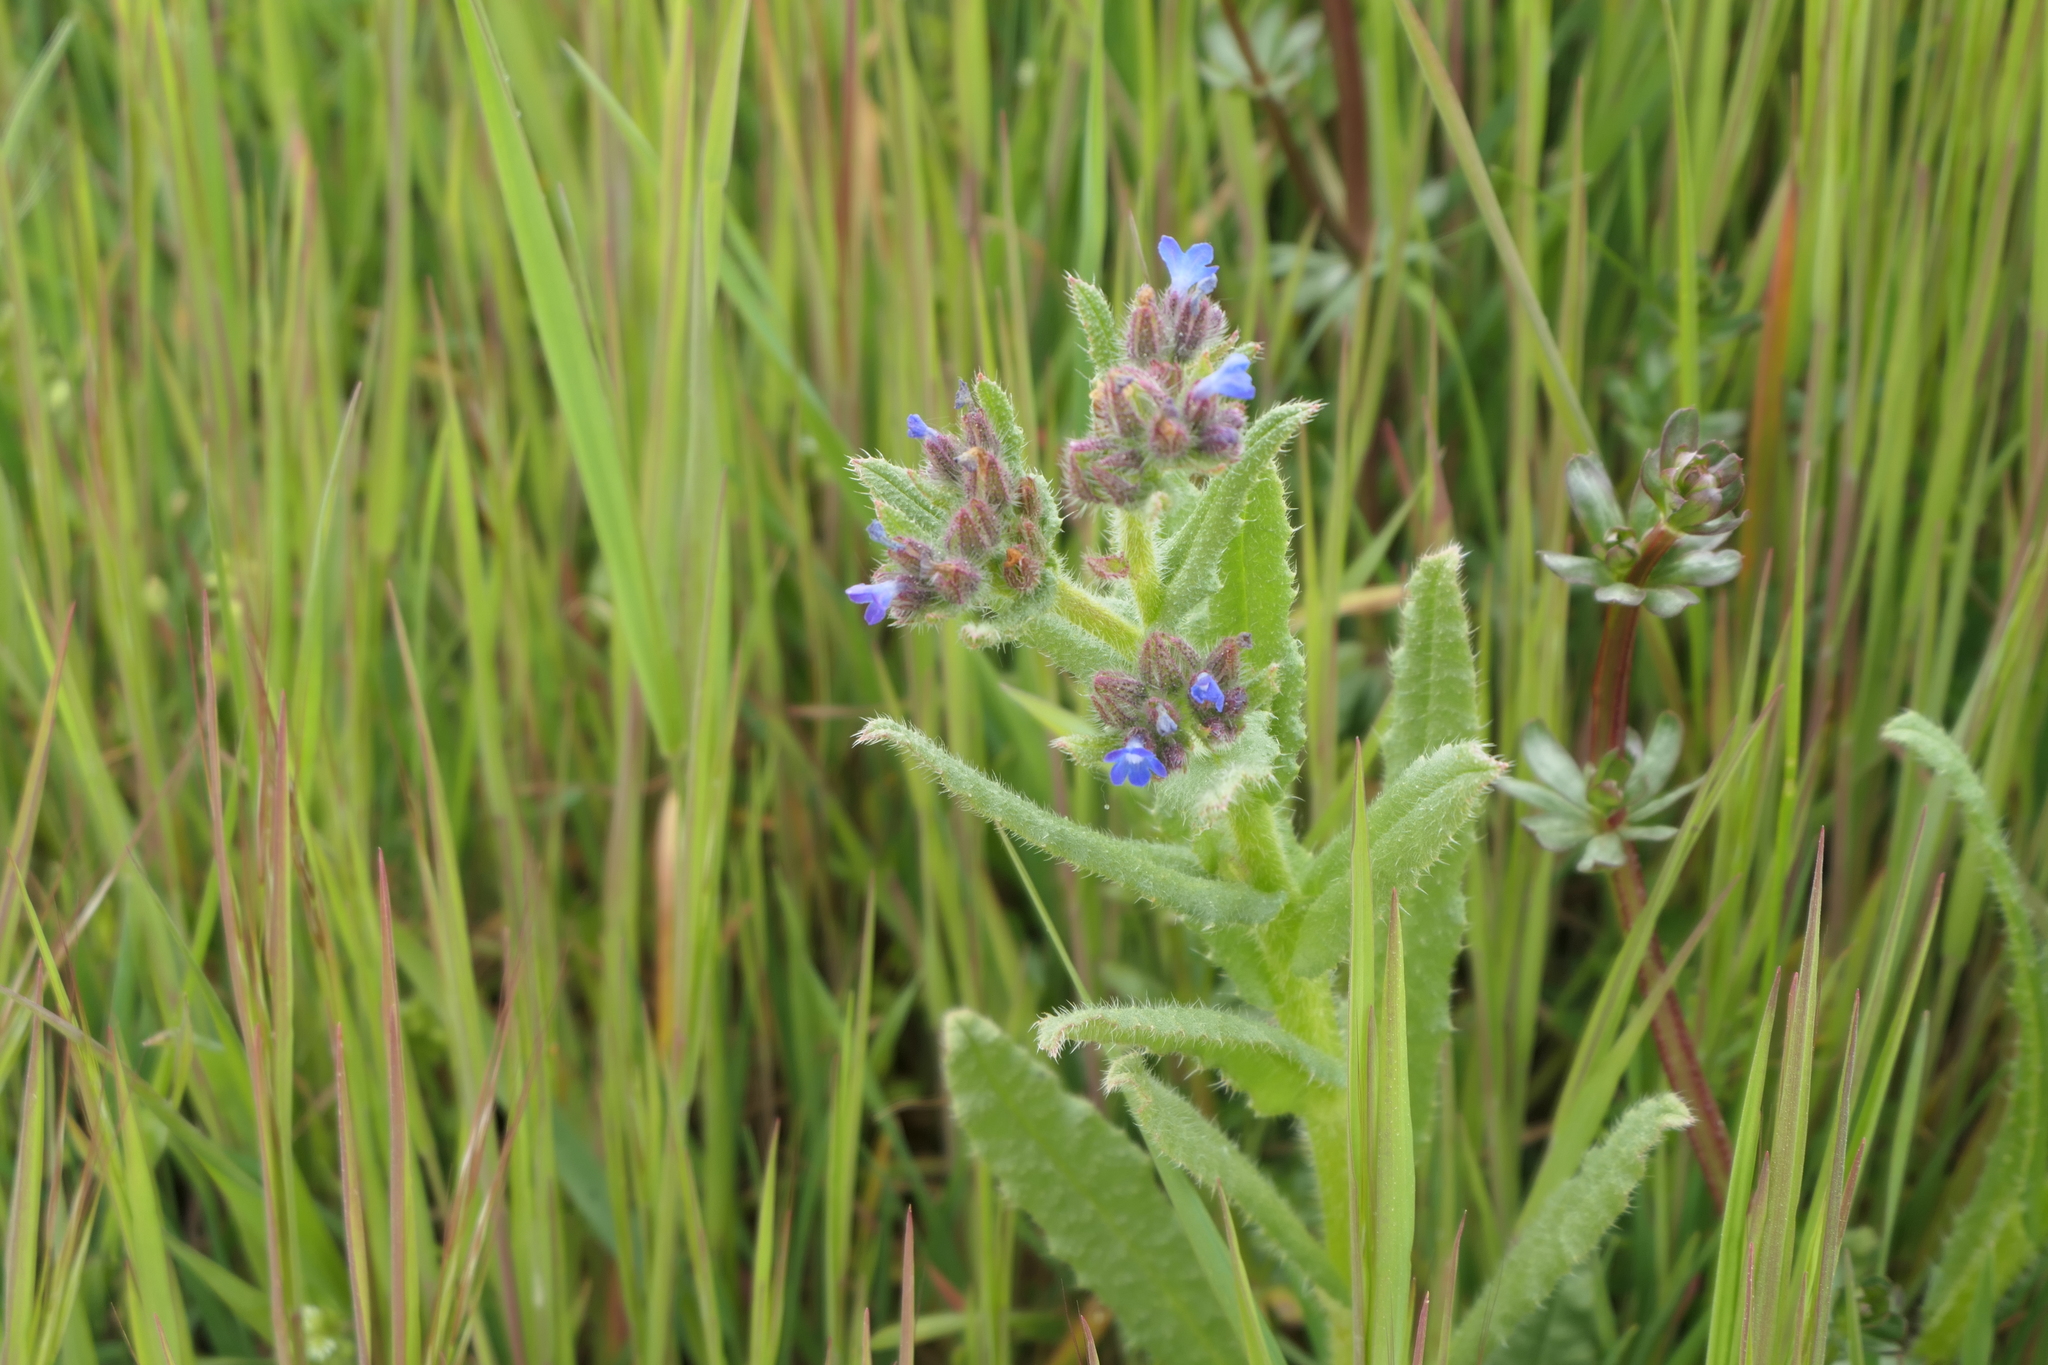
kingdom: Plantae
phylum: Tracheophyta
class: Magnoliopsida
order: Boraginales
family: Boraginaceae
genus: Lycopsis
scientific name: Lycopsis arvensis
